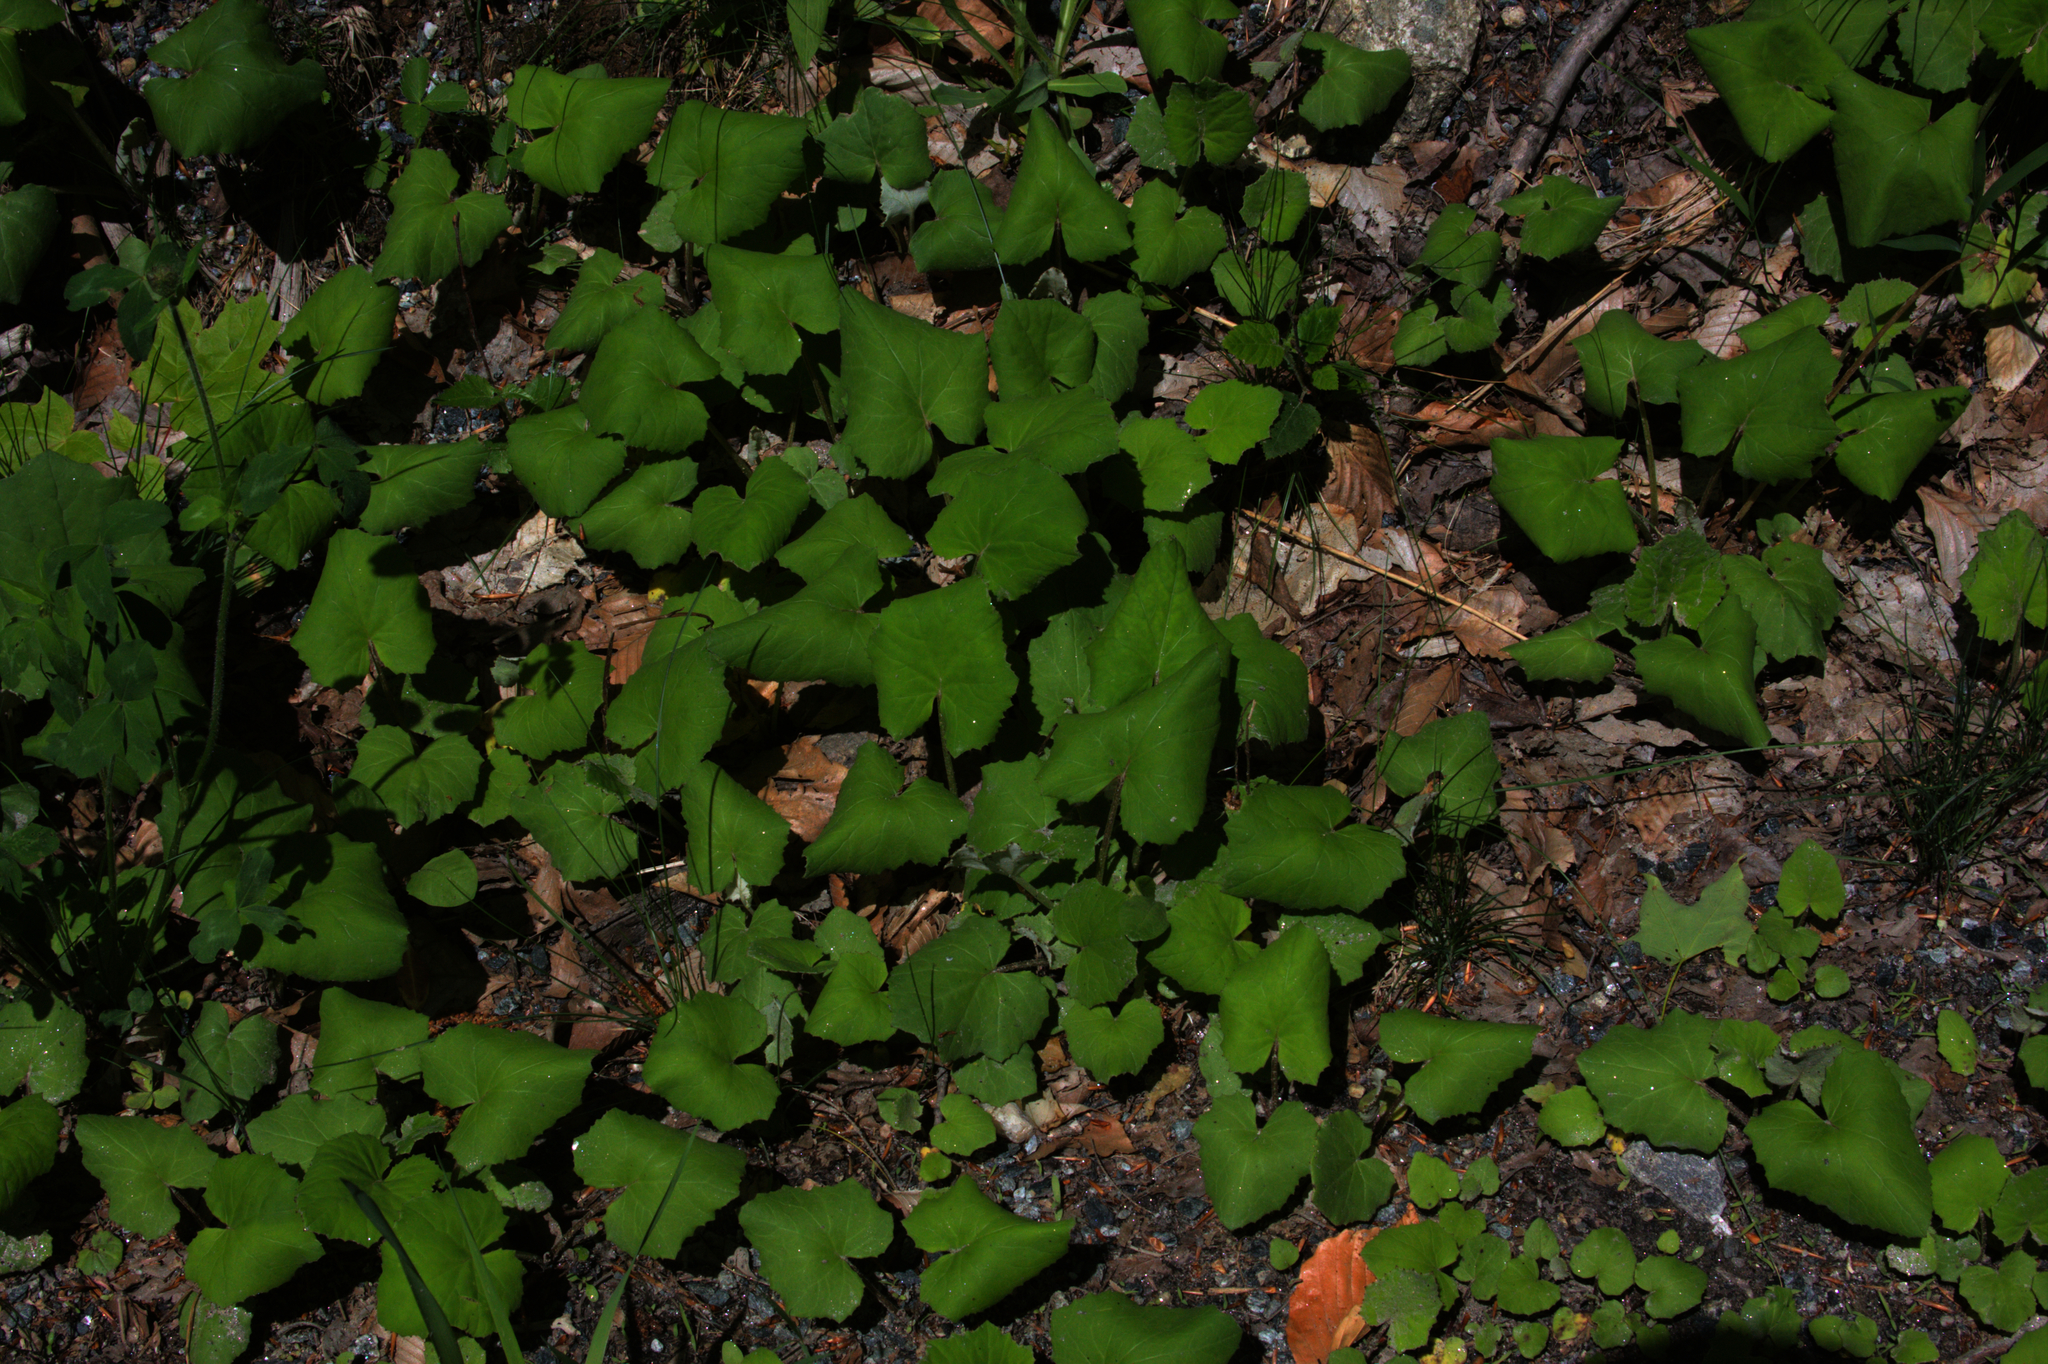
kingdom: Plantae
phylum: Tracheophyta
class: Magnoliopsida
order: Asterales
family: Asteraceae
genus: Tussilago
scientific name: Tussilago farfara
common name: Coltsfoot
